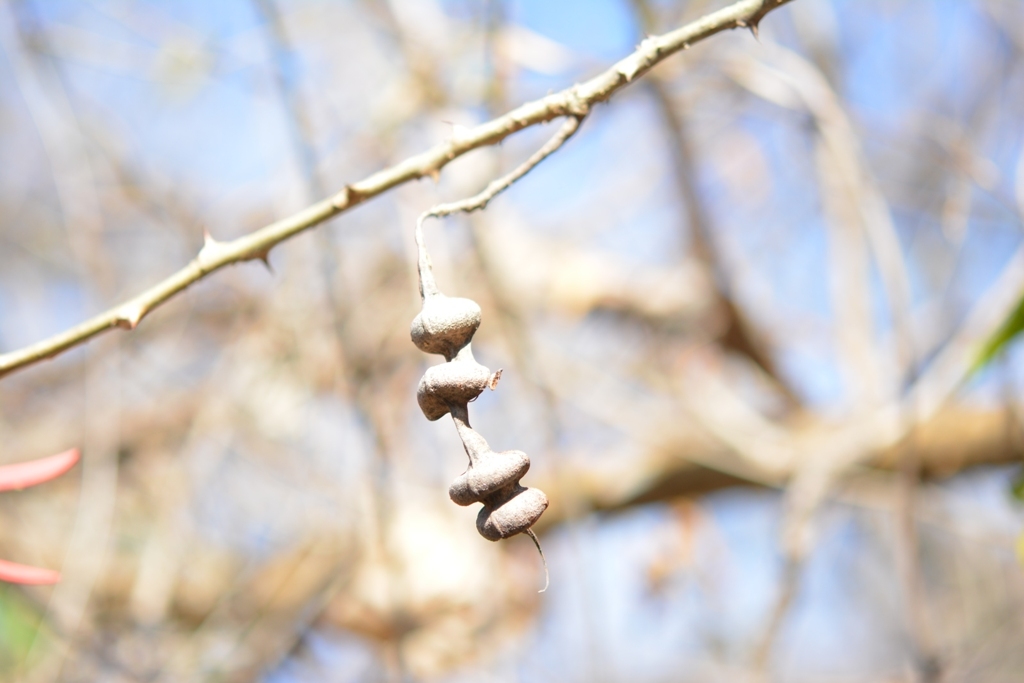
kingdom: Plantae
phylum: Tracheophyta
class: Magnoliopsida
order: Fabales
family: Fabaceae
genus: Erythrina
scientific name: Erythrina chiapasana
